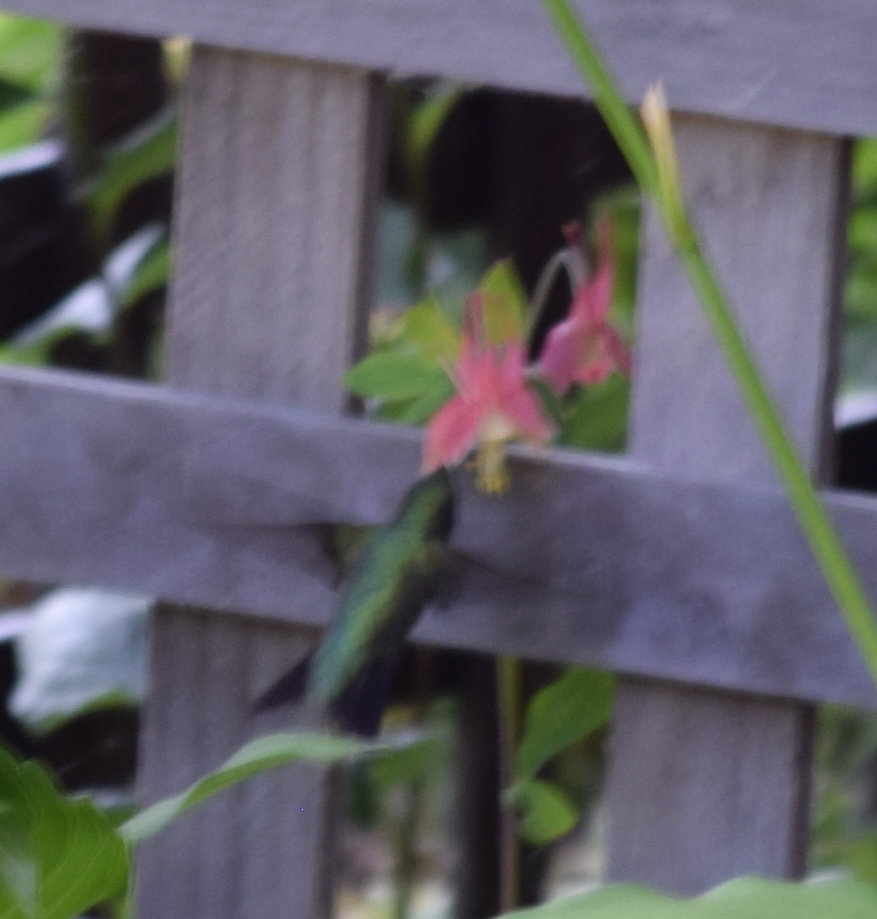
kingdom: Animalia
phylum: Chordata
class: Aves
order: Apodiformes
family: Trochilidae
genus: Archilochus
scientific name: Archilochus colubris
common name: Ruby-throated hummingbird
